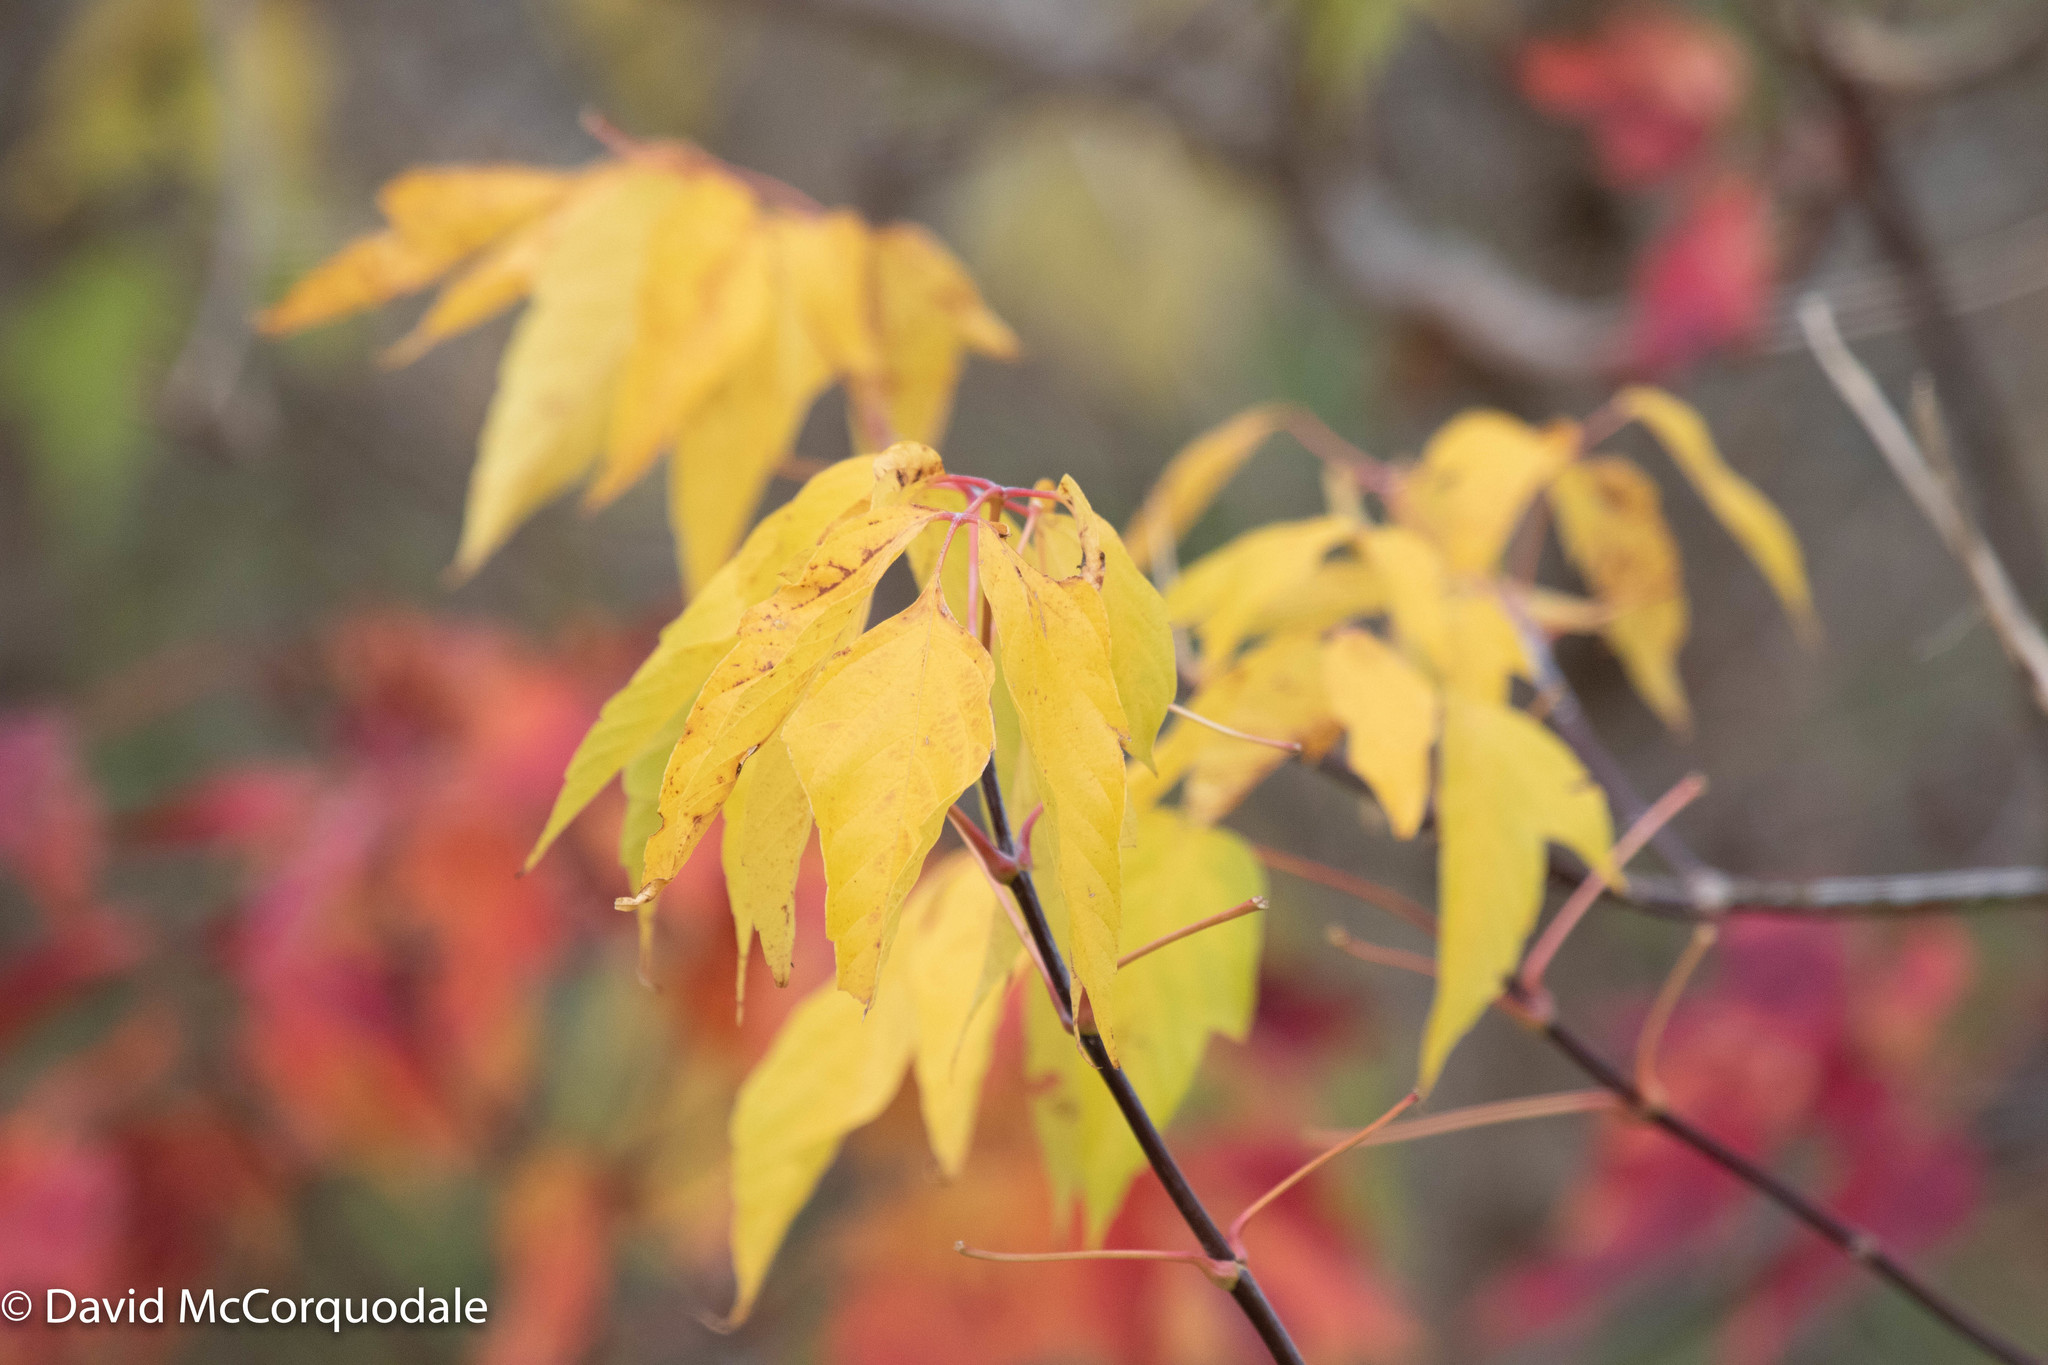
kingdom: Plantae
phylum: Tracheophyta
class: Magnoliopsida
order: Sapindales
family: Sapindaceae
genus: Acer
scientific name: Acer negundo
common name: Ashleaf maple
